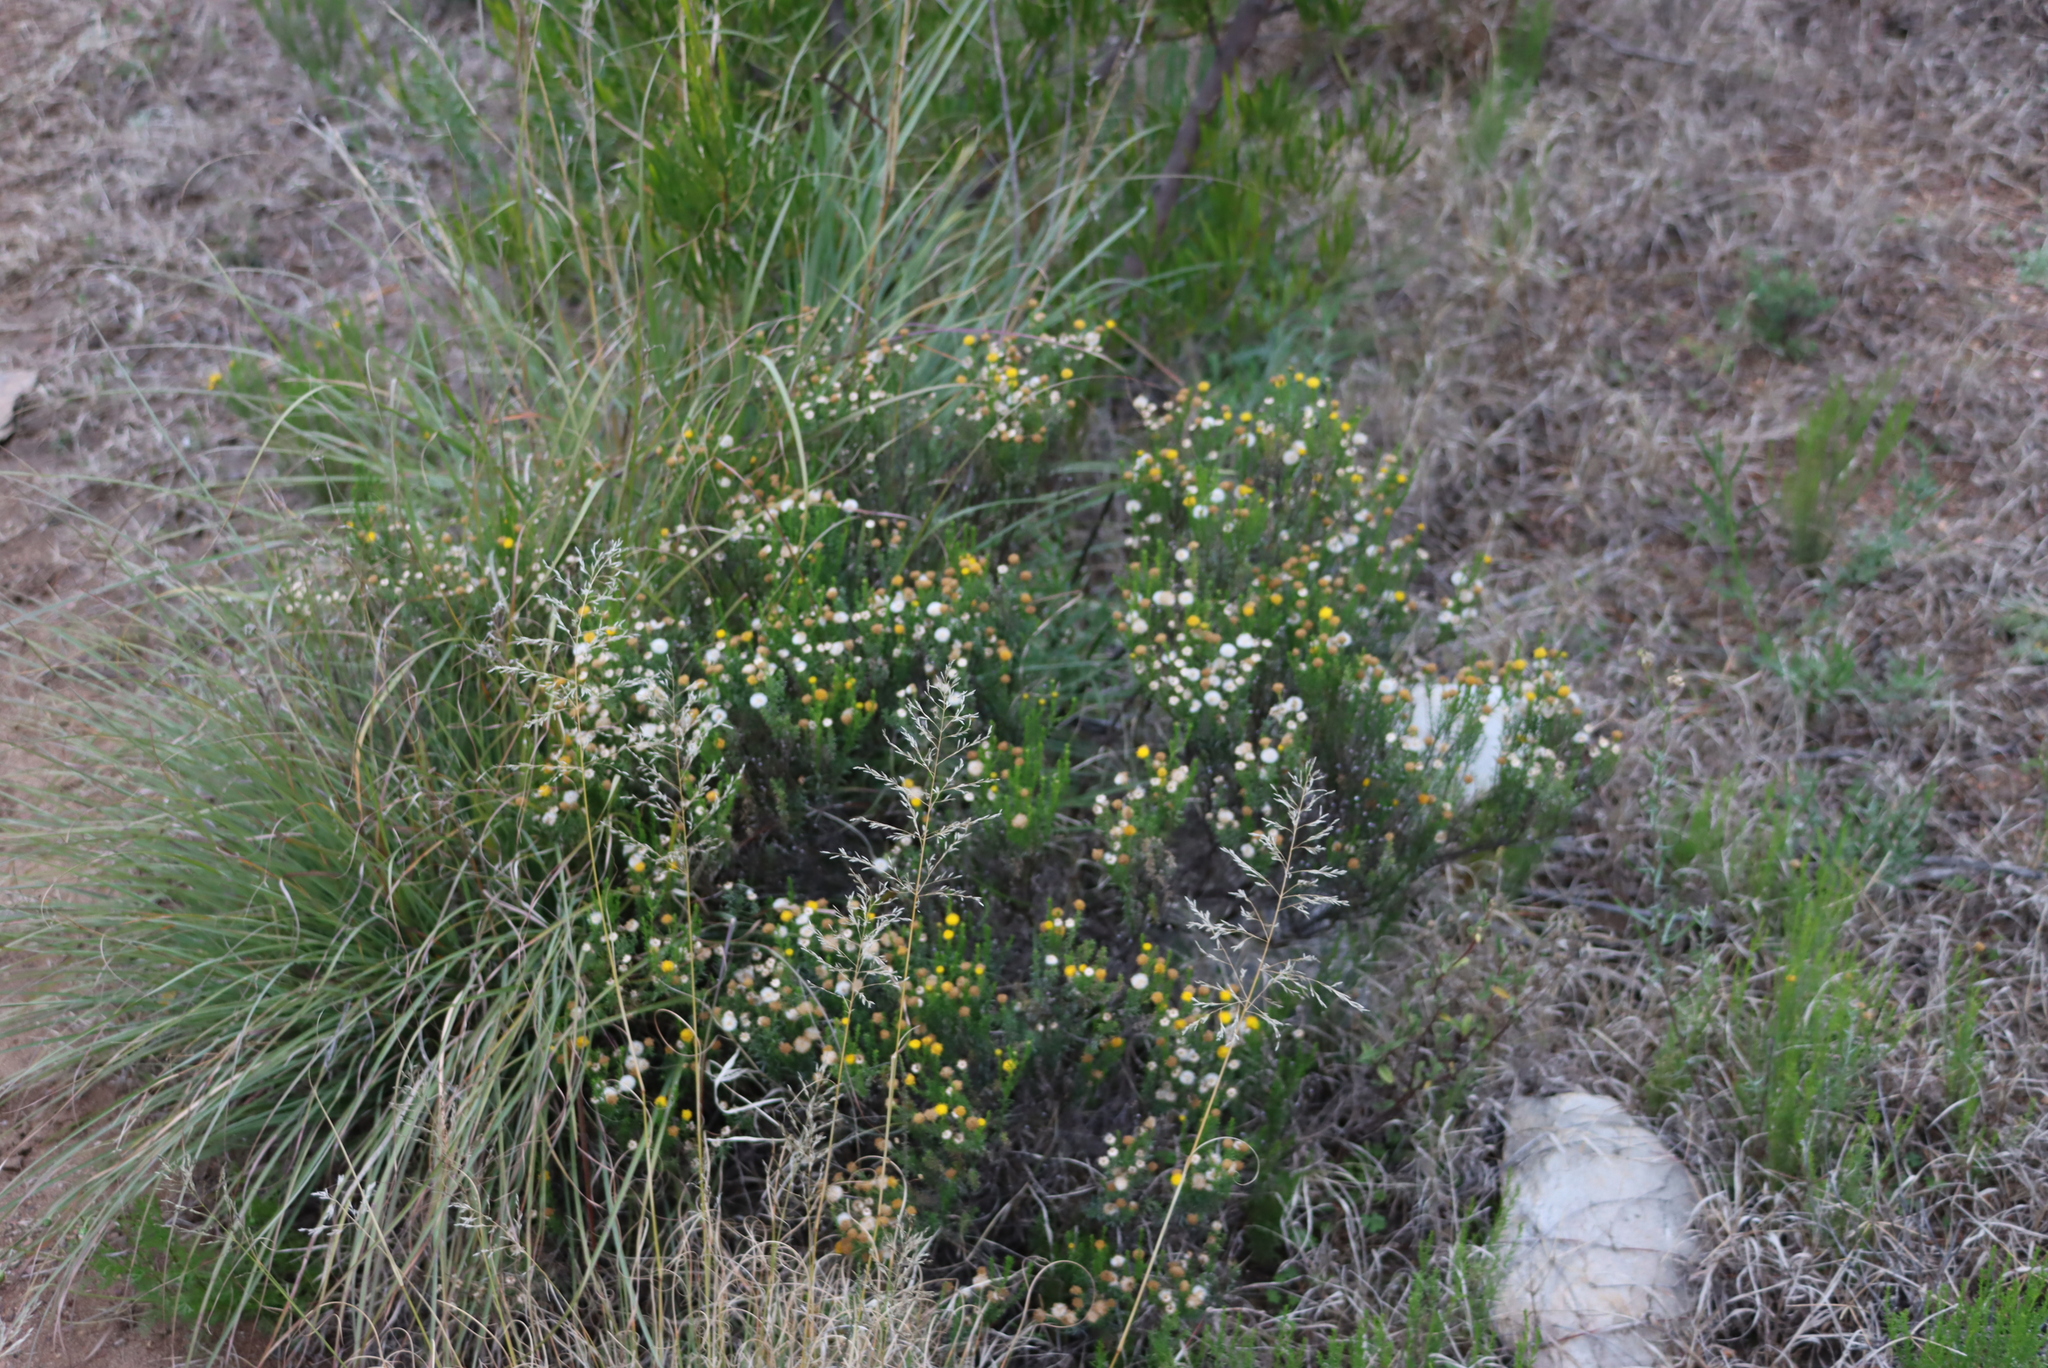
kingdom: Plantae
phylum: Tracheophyta
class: Magnoliopsida
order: Asterales
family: Asteraceae
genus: Chrysocoma
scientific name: Chrysocoma ciliata
